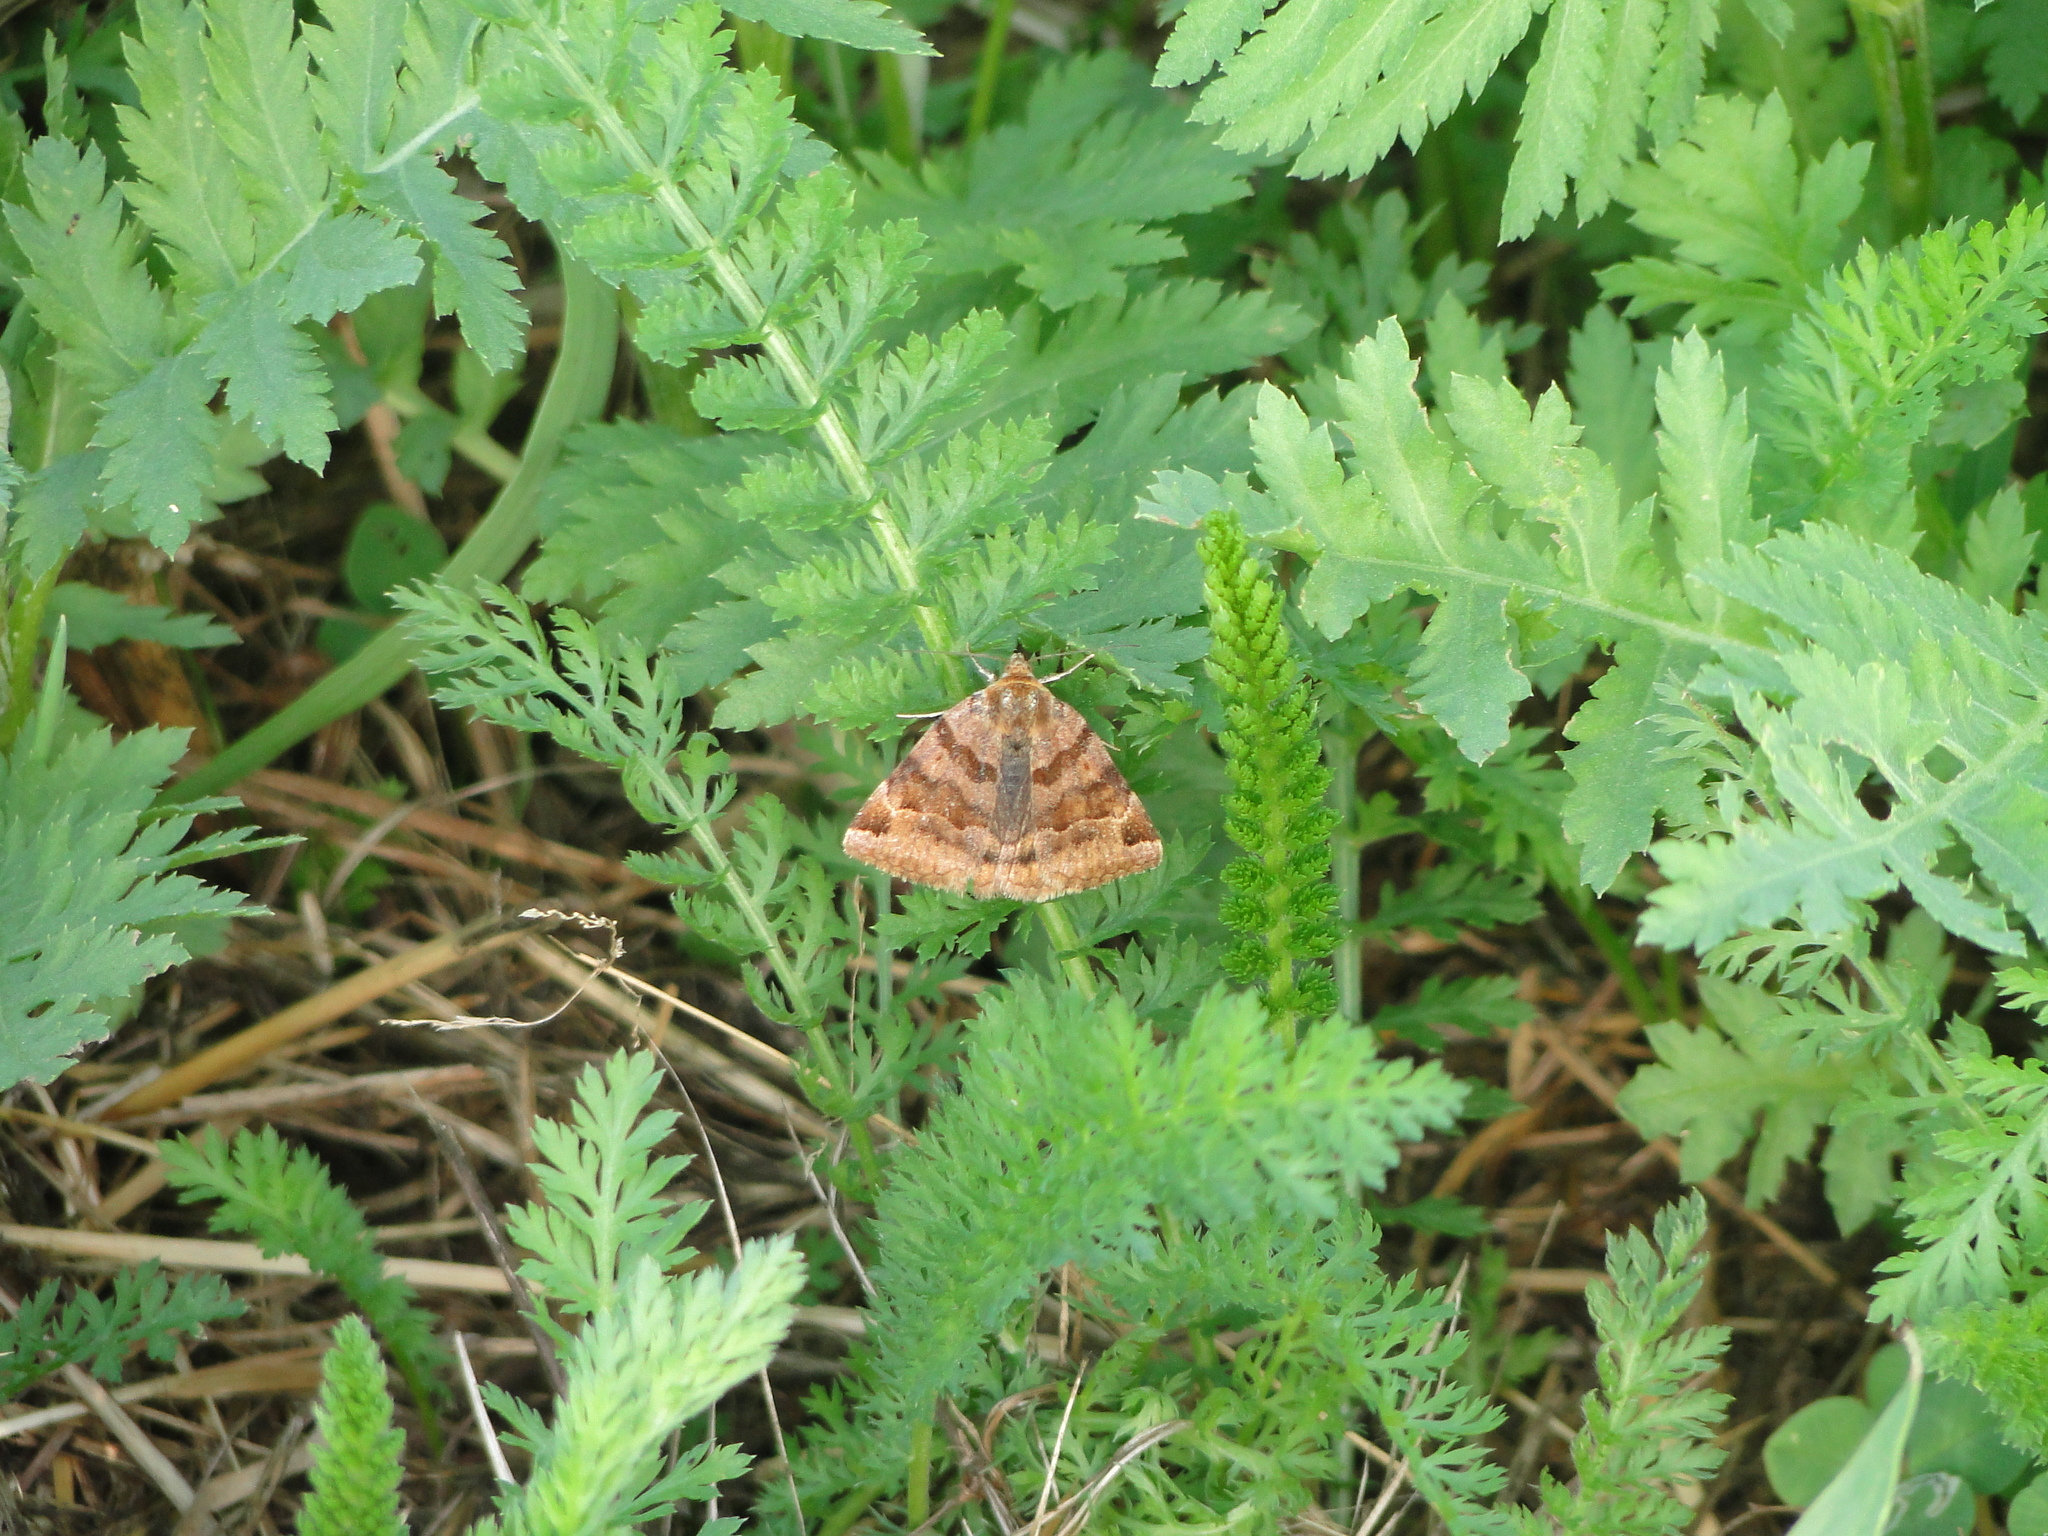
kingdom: Animalia
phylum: Arthropoda
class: Insecta
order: Lepidoptera
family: Erebidae
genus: Euclidia
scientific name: Euclidia glyphica
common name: Burnet companion
